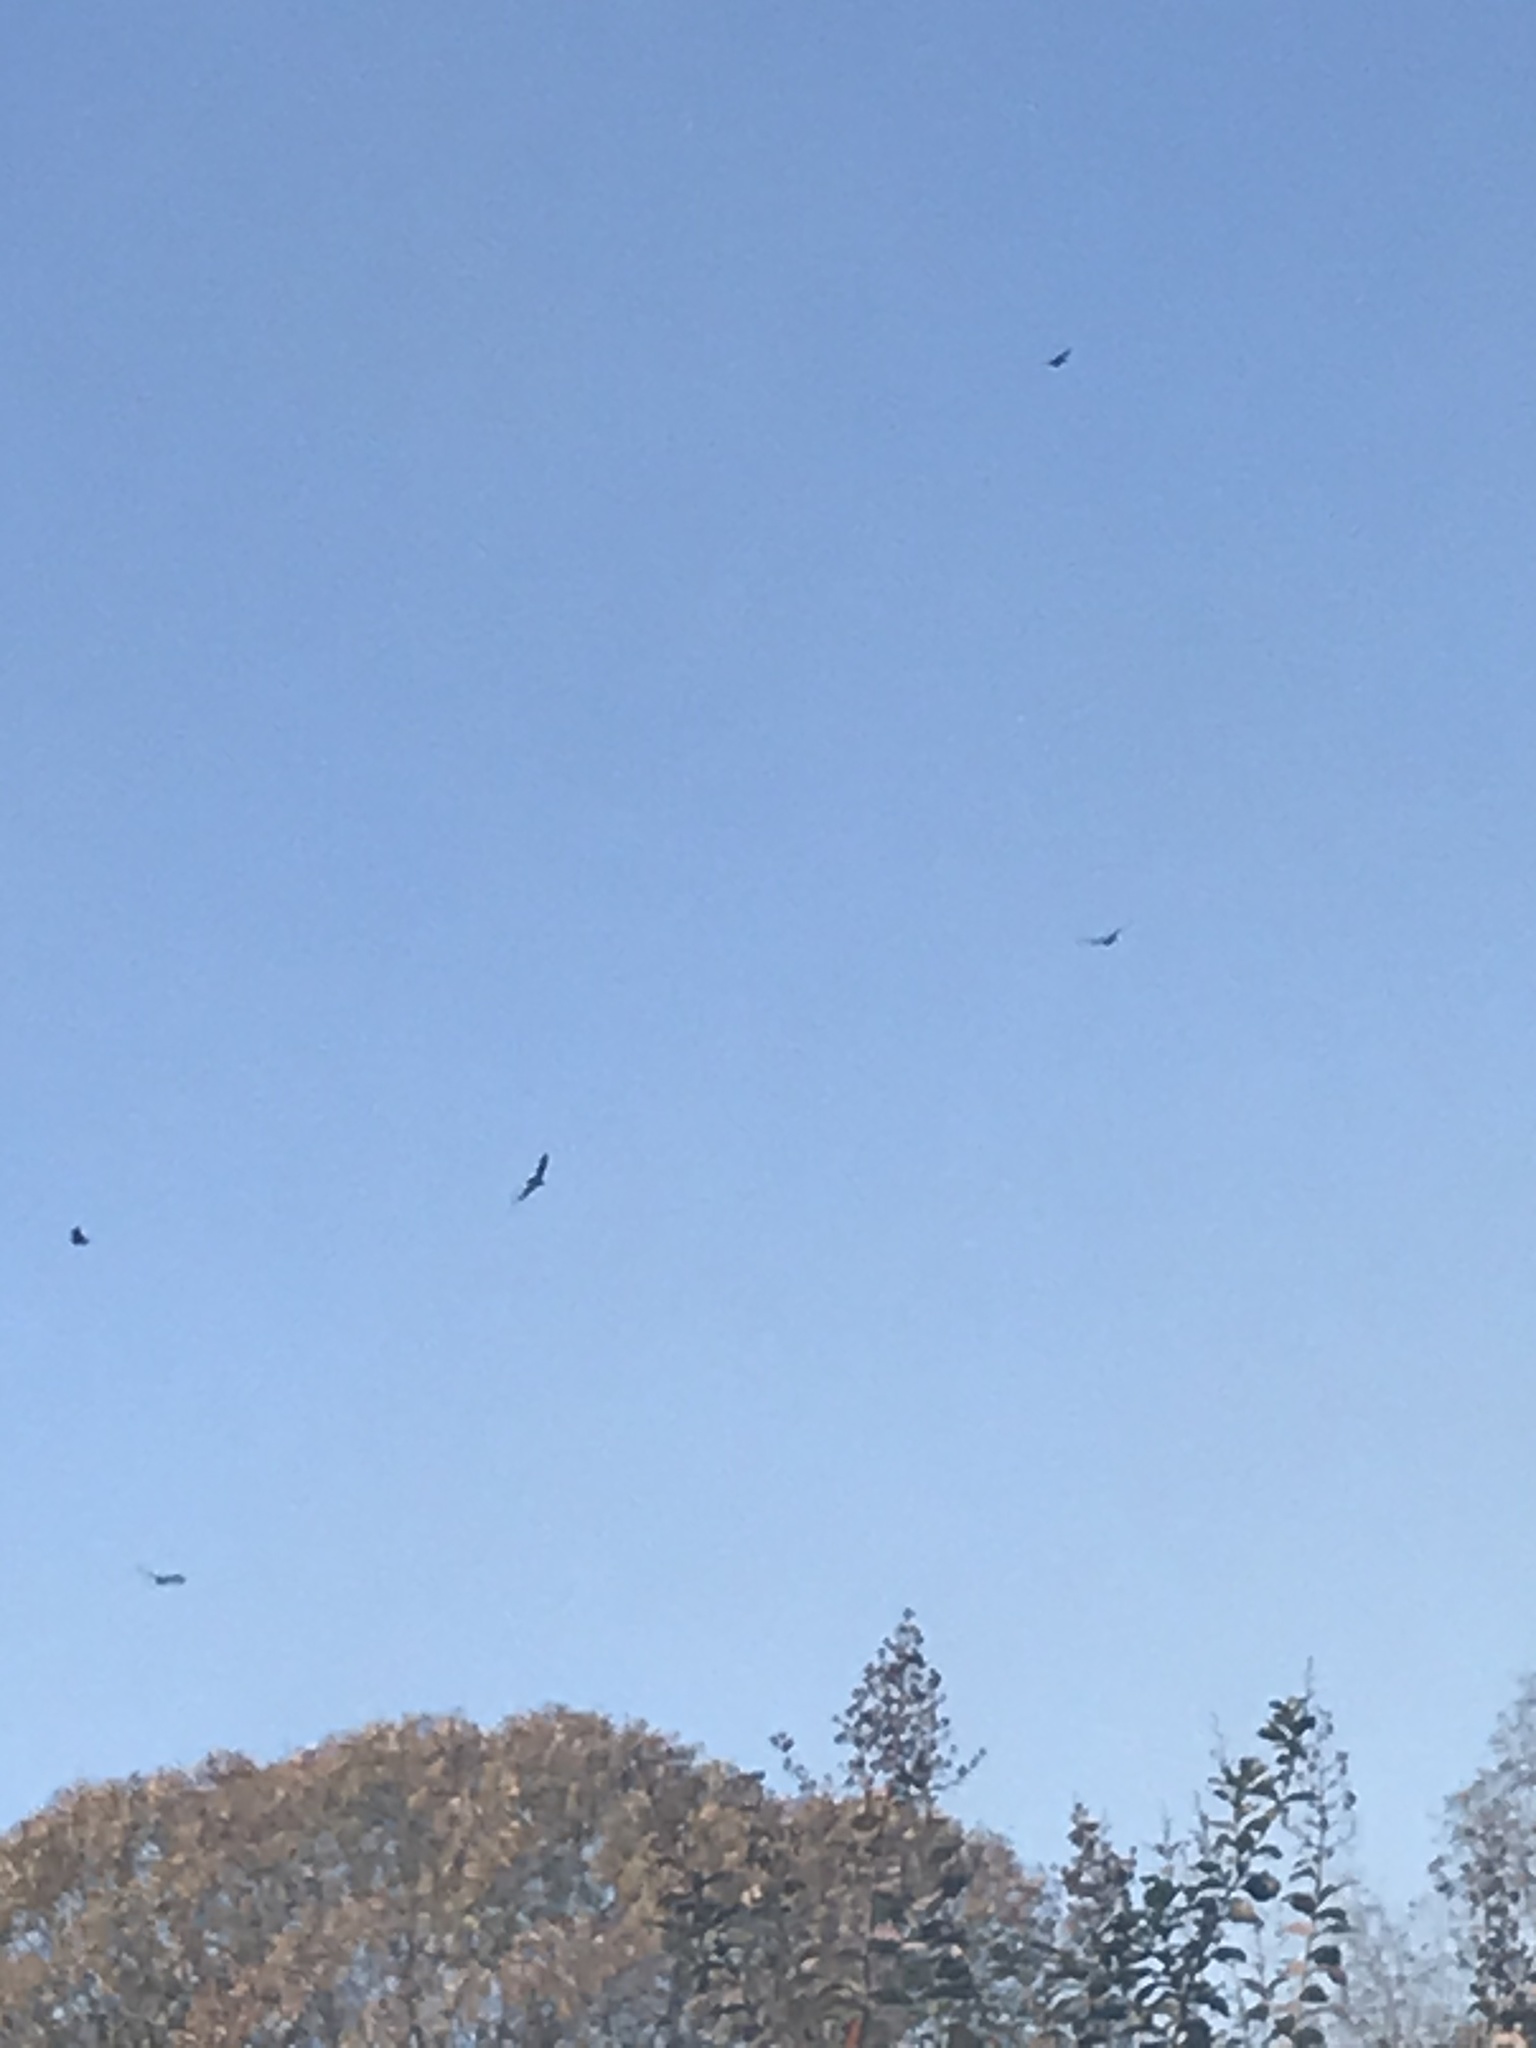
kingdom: Animalia
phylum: Chordata
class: Aves
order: Accipitriformes
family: Cathartidae
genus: Cathartes
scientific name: Cathartes aura
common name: Turkey vulture
